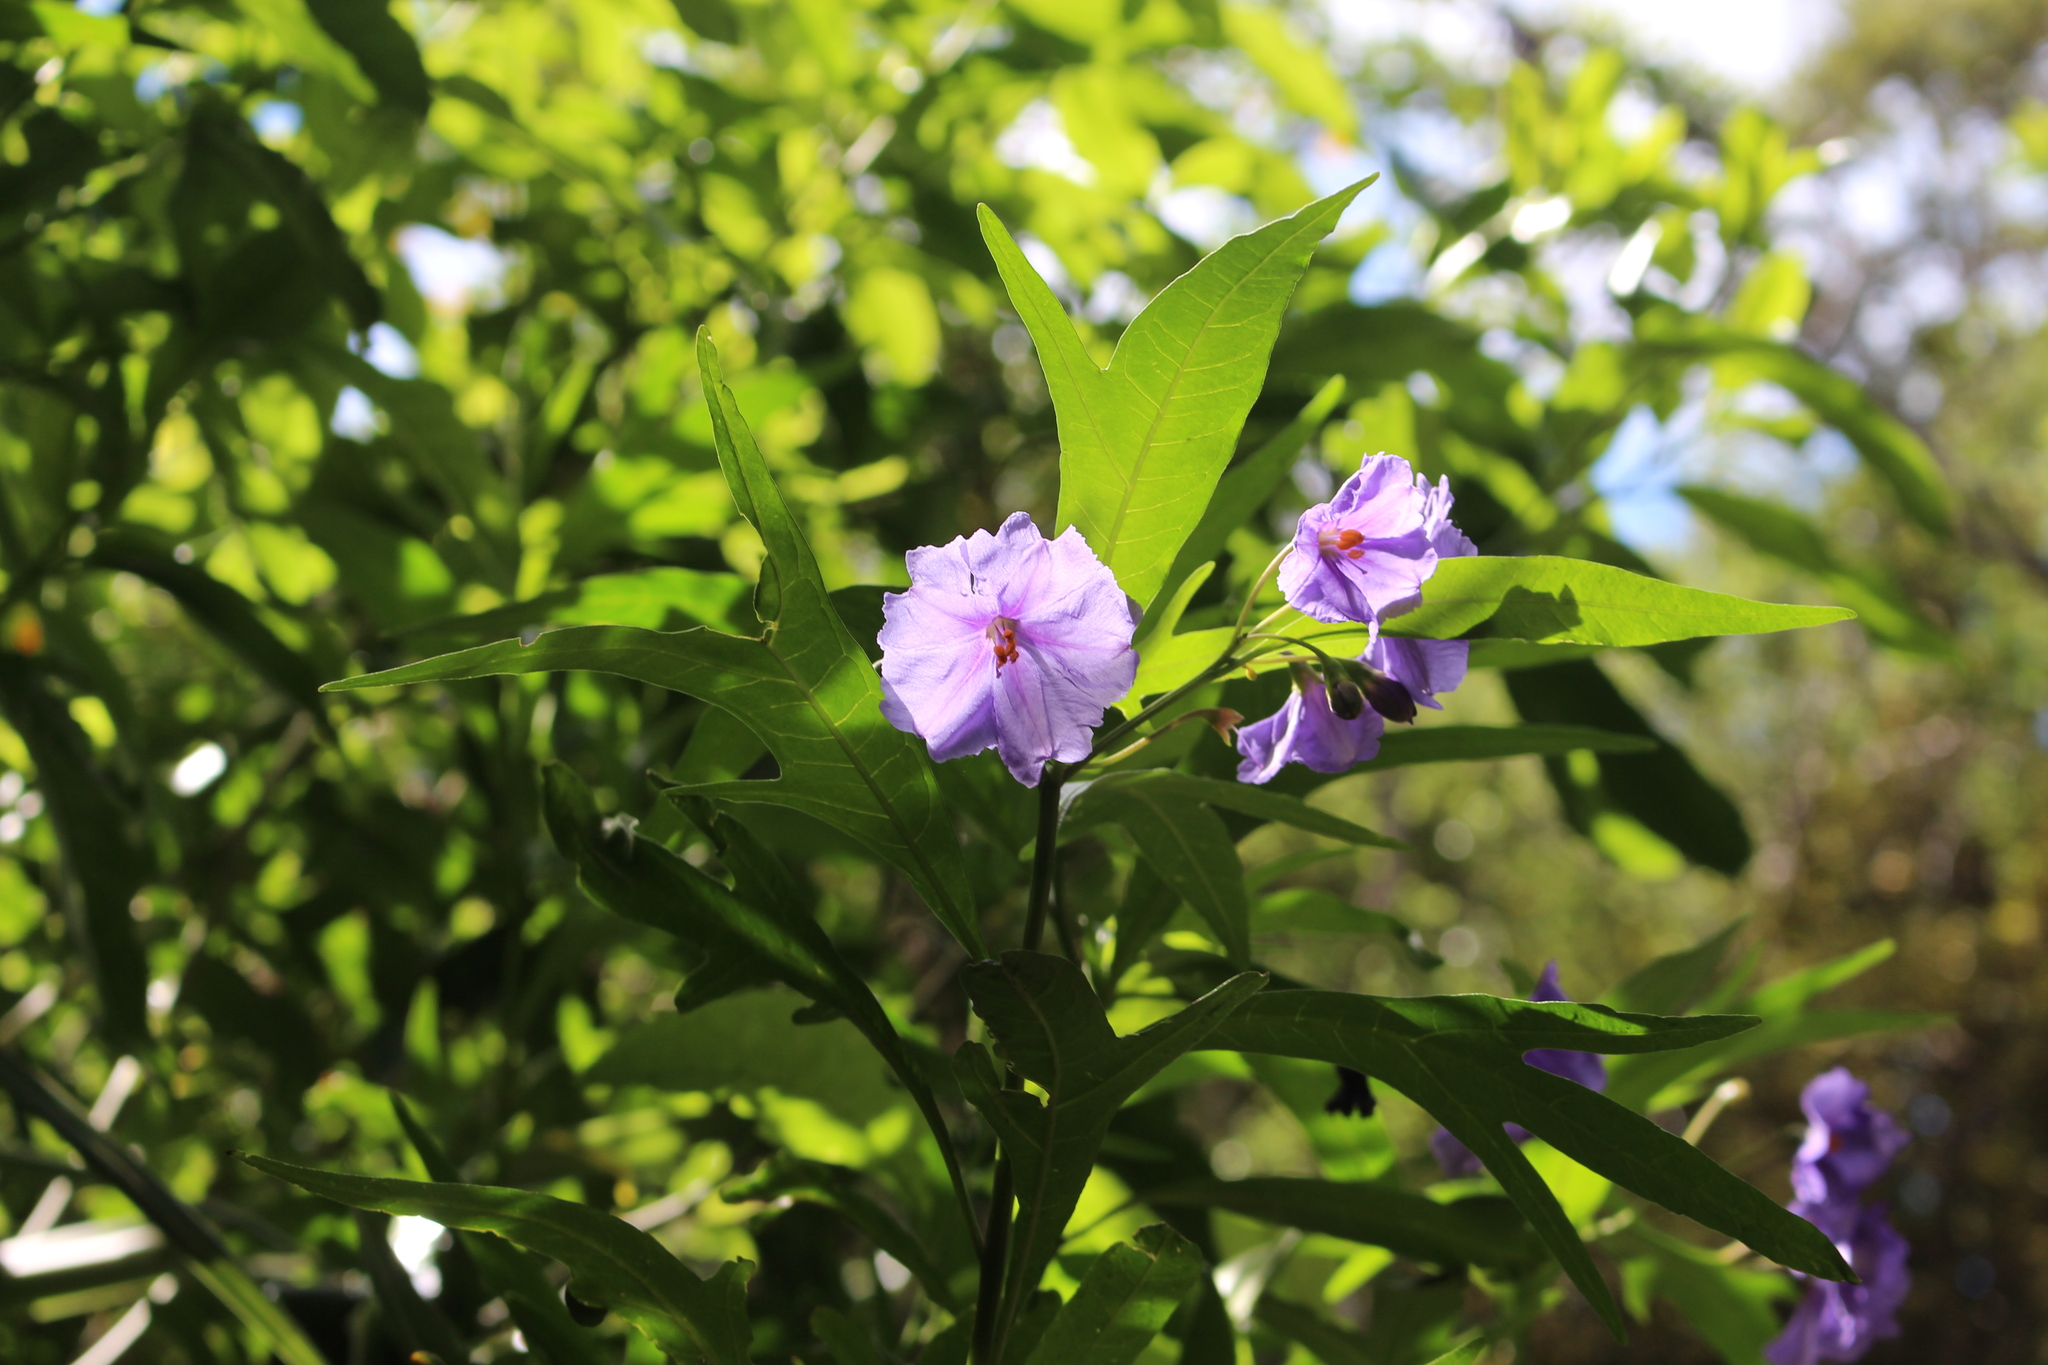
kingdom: Plantae
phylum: Tracheophyta
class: Magnoliopsida
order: Solanales
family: Solanaceae
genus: Solanum
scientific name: Solanum laciniatum
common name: Kangaroo-apple
